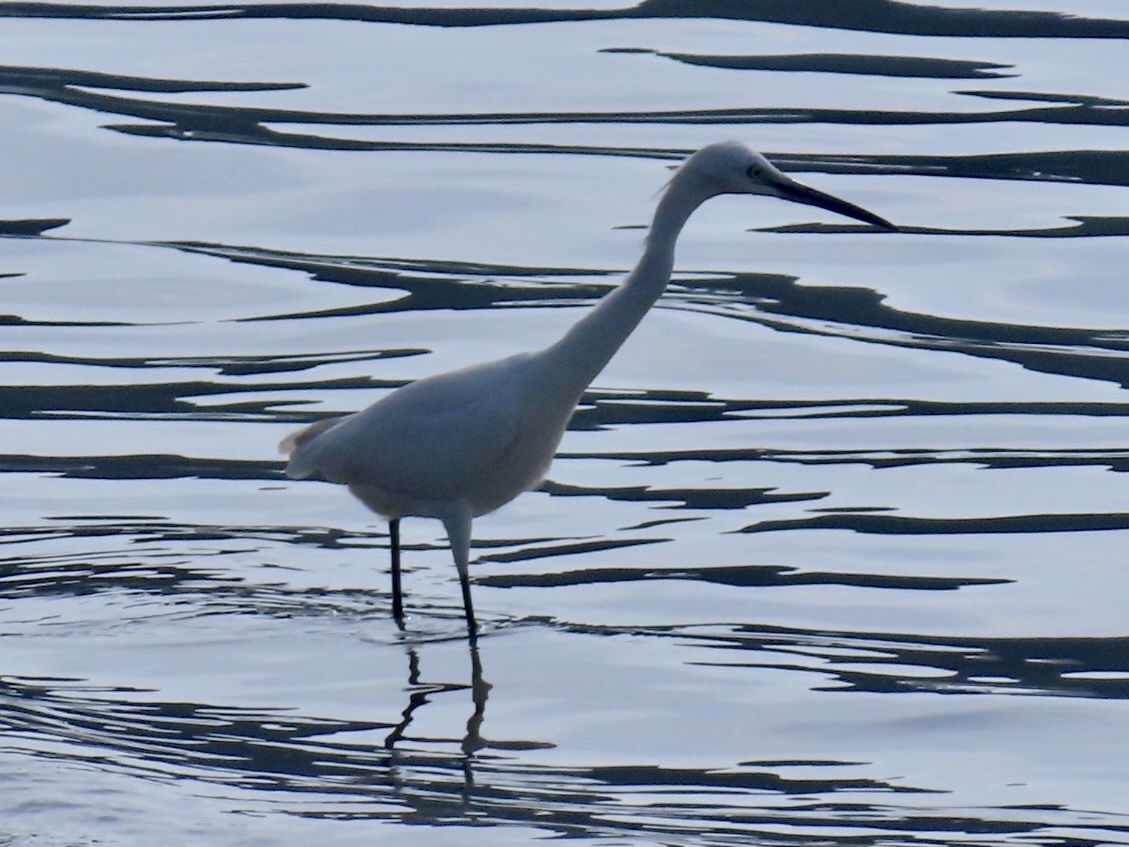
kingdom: Animalia
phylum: Chordata
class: Aves
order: Pelecaniformes
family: Ardeidae
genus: Egretta
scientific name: Egretta garzetta
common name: Little egret
